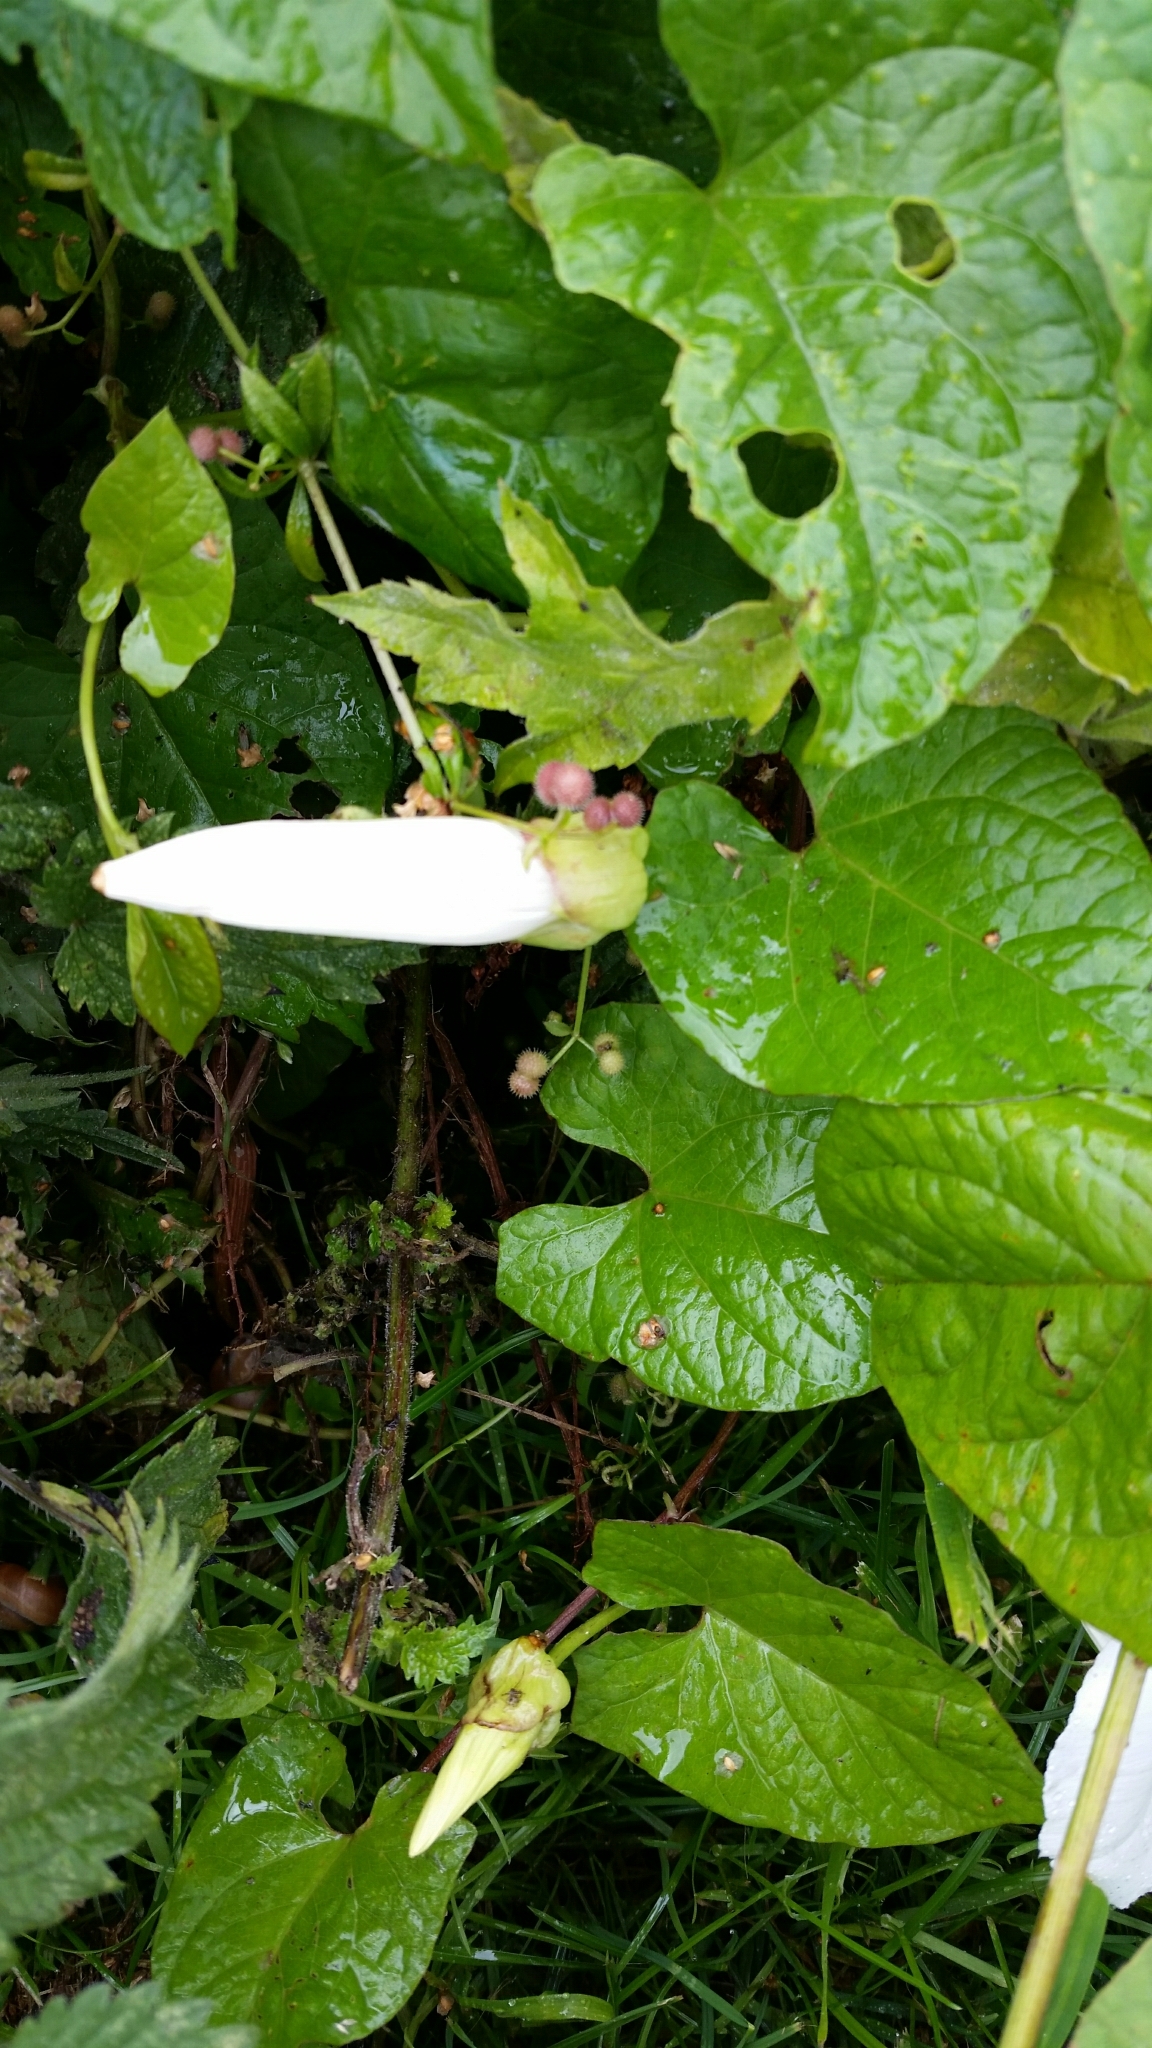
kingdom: Plantae
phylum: Tracheophyta
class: Magnoliopsida
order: Solanales
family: Convolvulaceae
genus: Calystegia
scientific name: Calystegia silvatica
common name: Large bindweed
